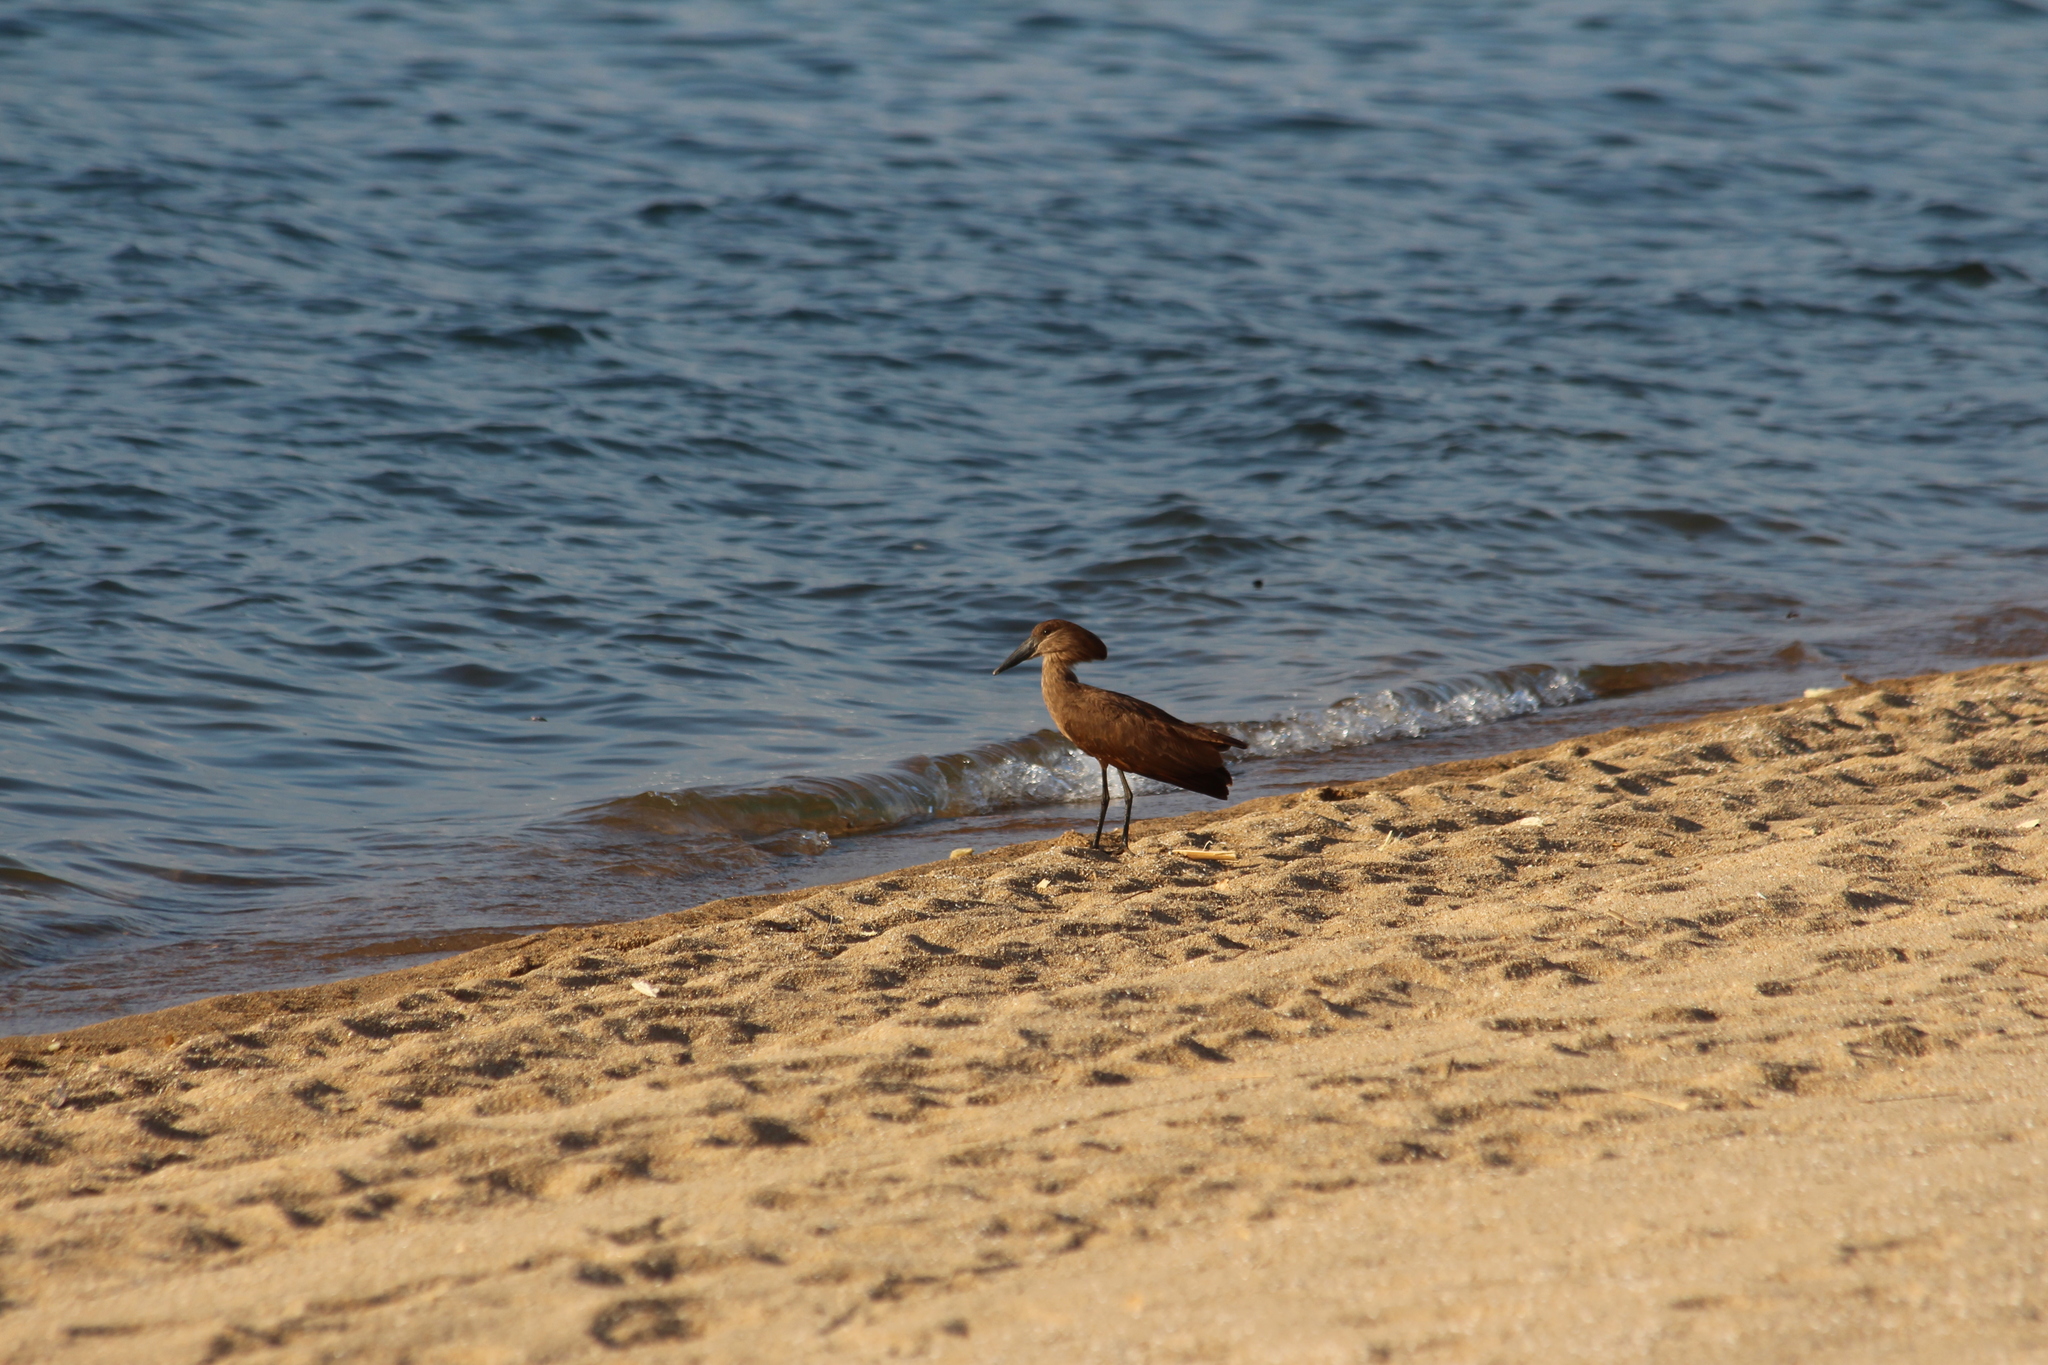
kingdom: Animalia
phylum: Chordata
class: Aves
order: Pelecaniformes
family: Scopidae
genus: Scopus
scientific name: Scopus umbretta
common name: Hamerkop
